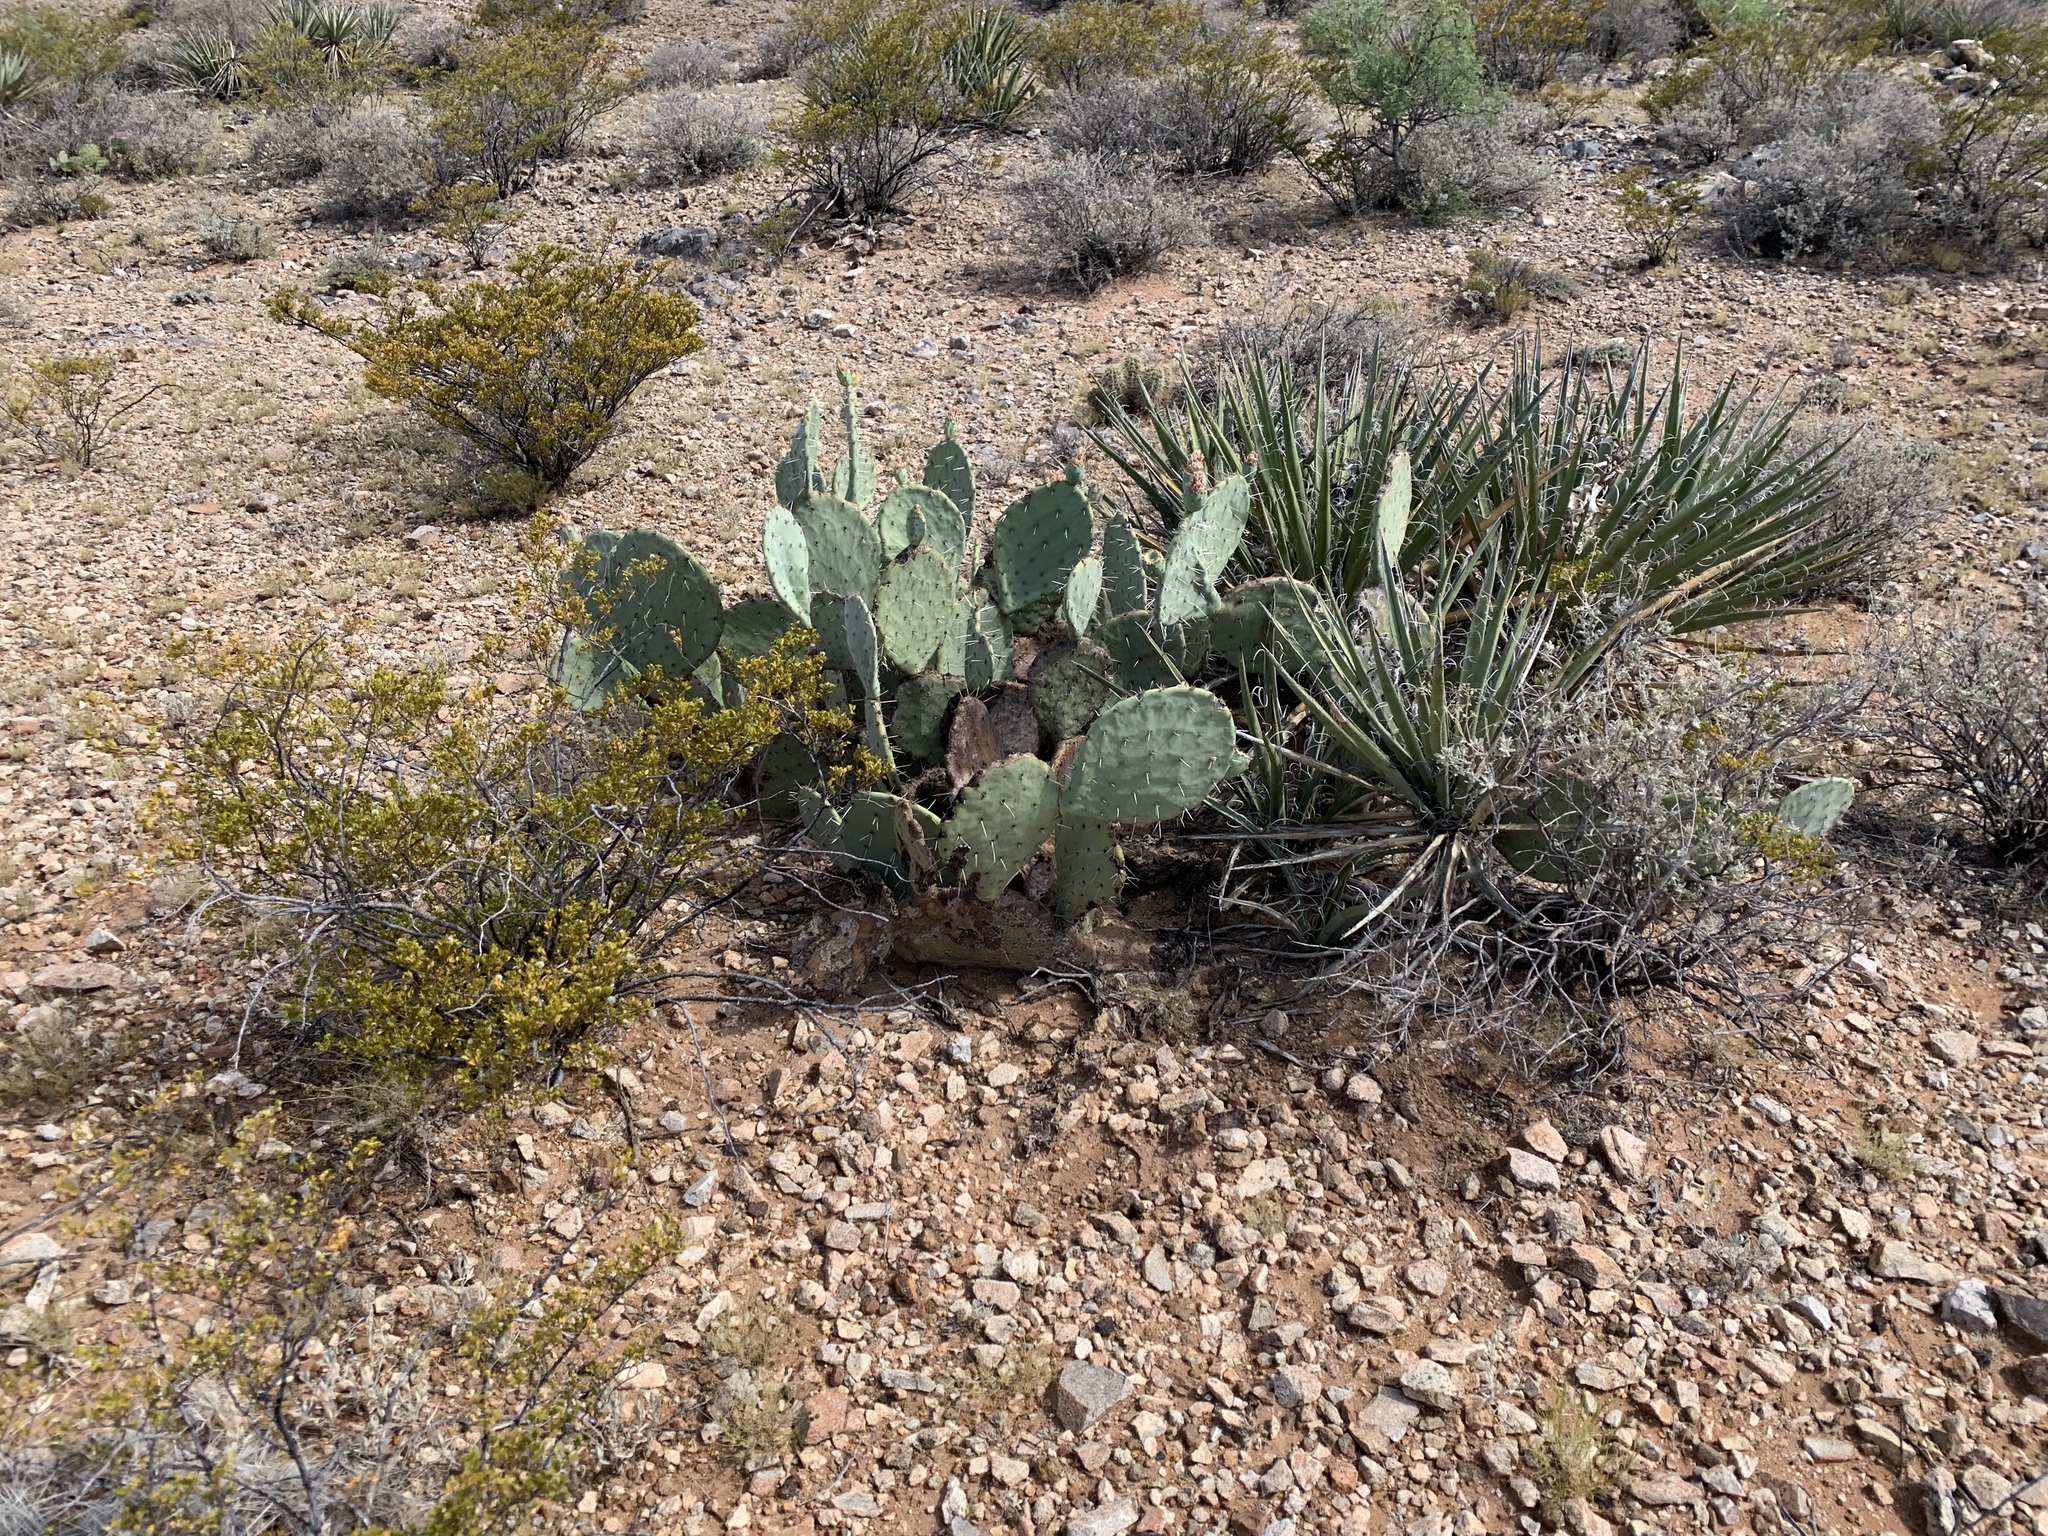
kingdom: Plantae
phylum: Tracheophyta
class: Magnoliopsida
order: Caryophyllales
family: Cactaceae
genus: Opuntia
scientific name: Opuntia engelmannii
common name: Cactus-apple
